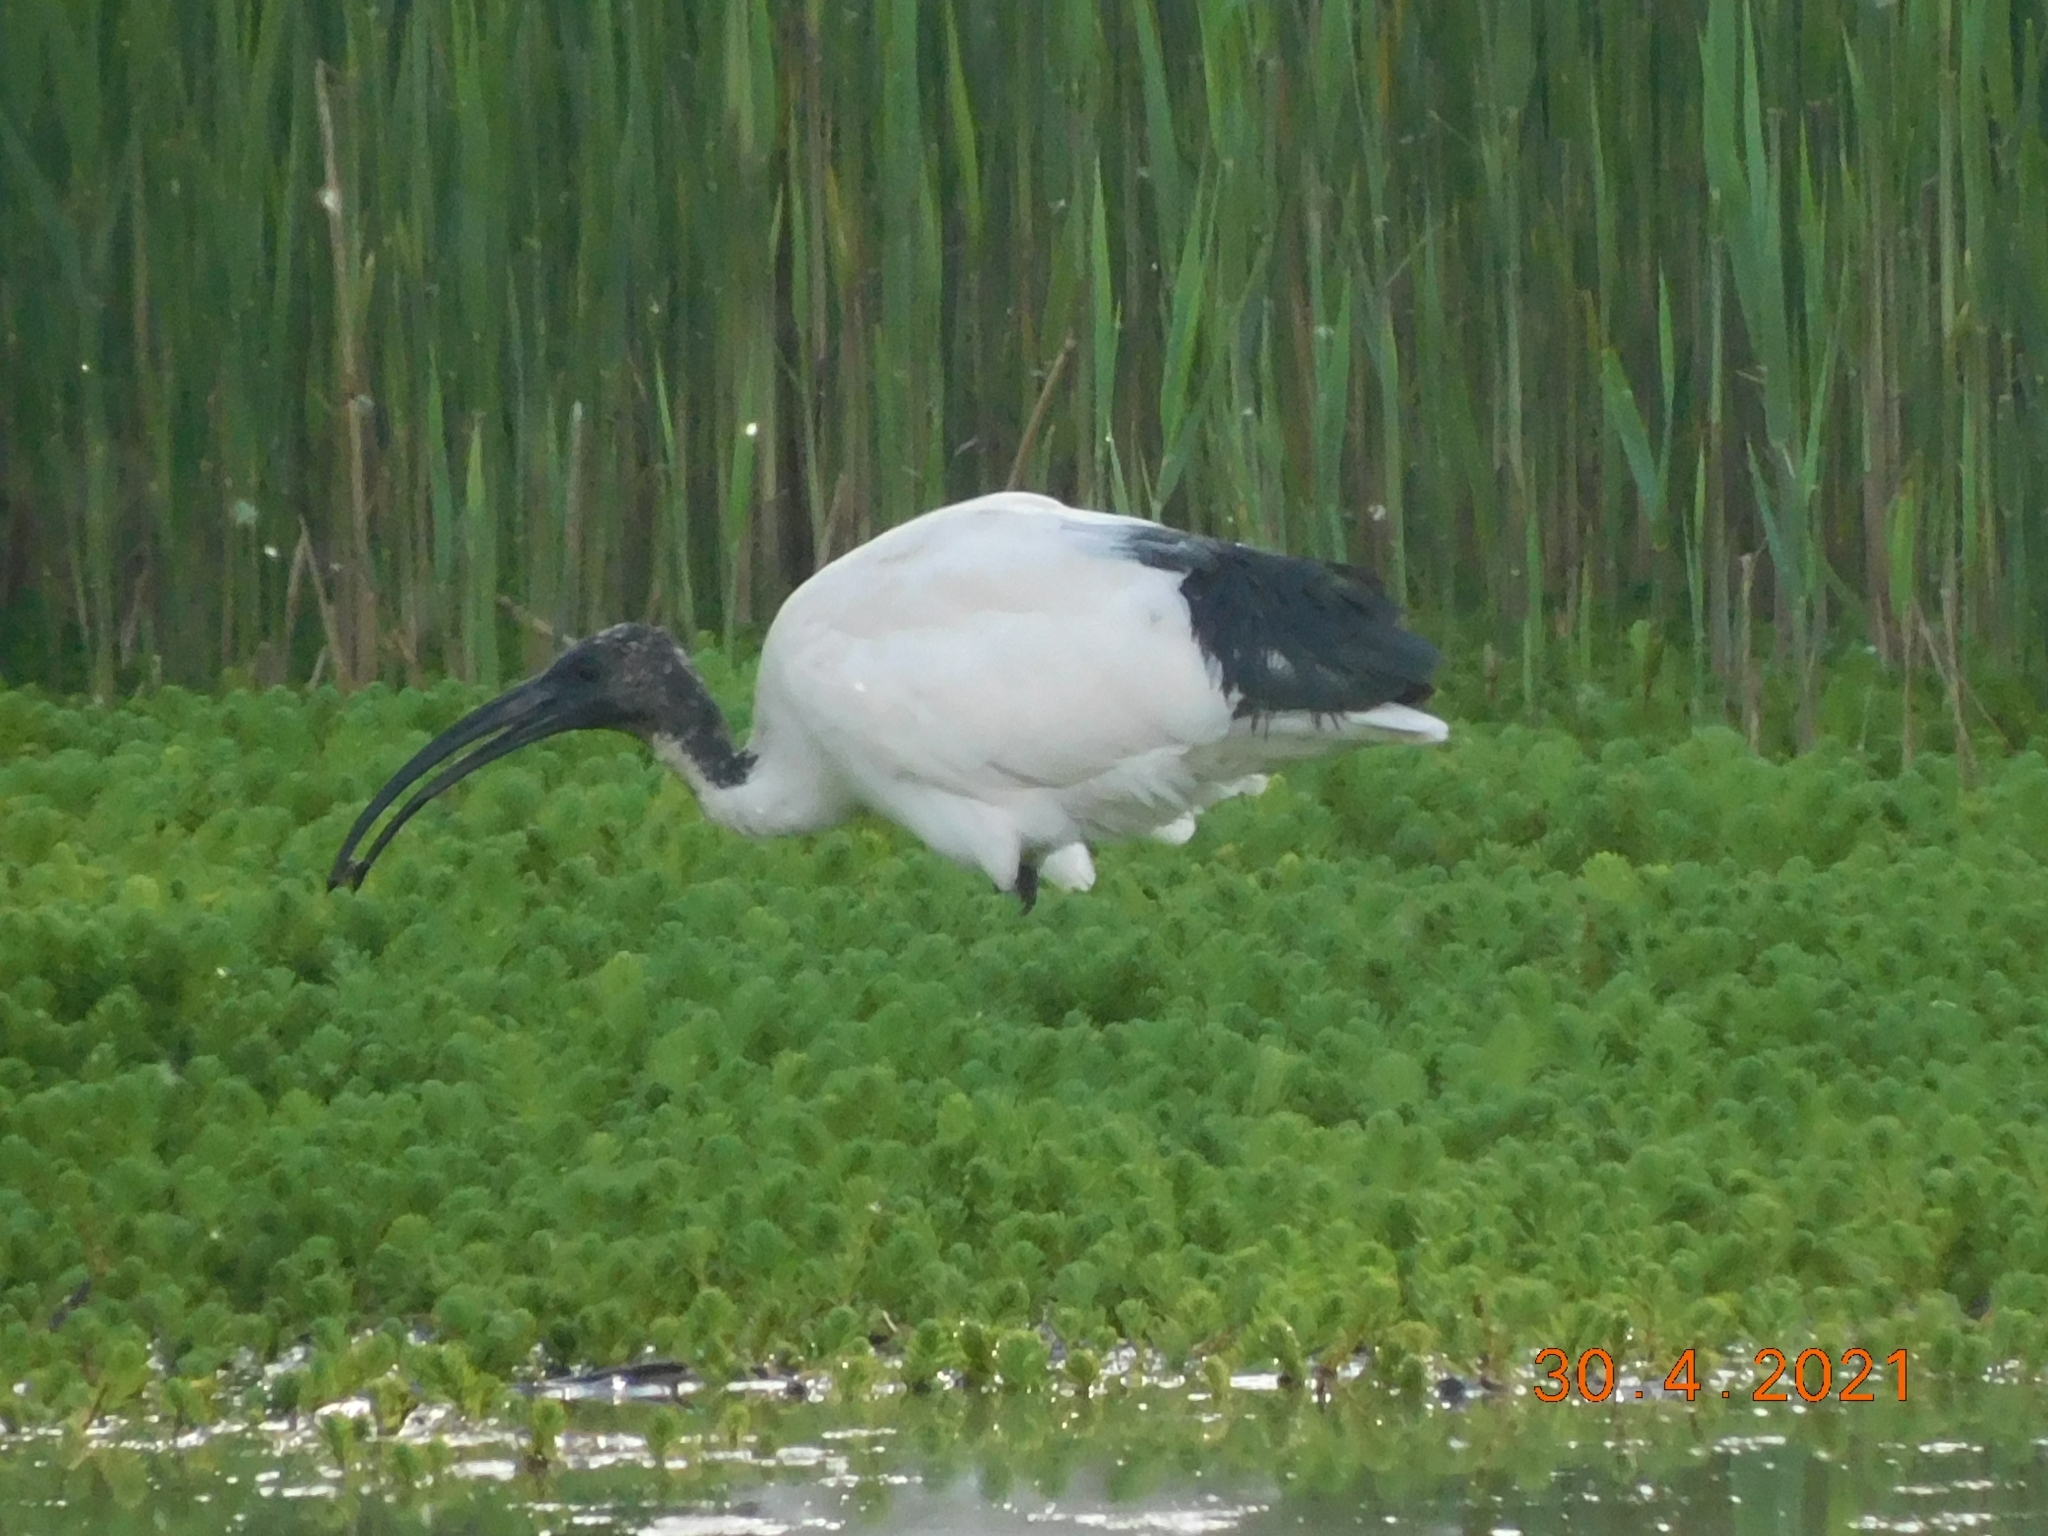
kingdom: Animalia
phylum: Chordata
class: Aves
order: Pelecaniformes
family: Threskiornithidae
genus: Threskiornis
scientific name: Threskiornis aethiopicus
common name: Sacred ibis
